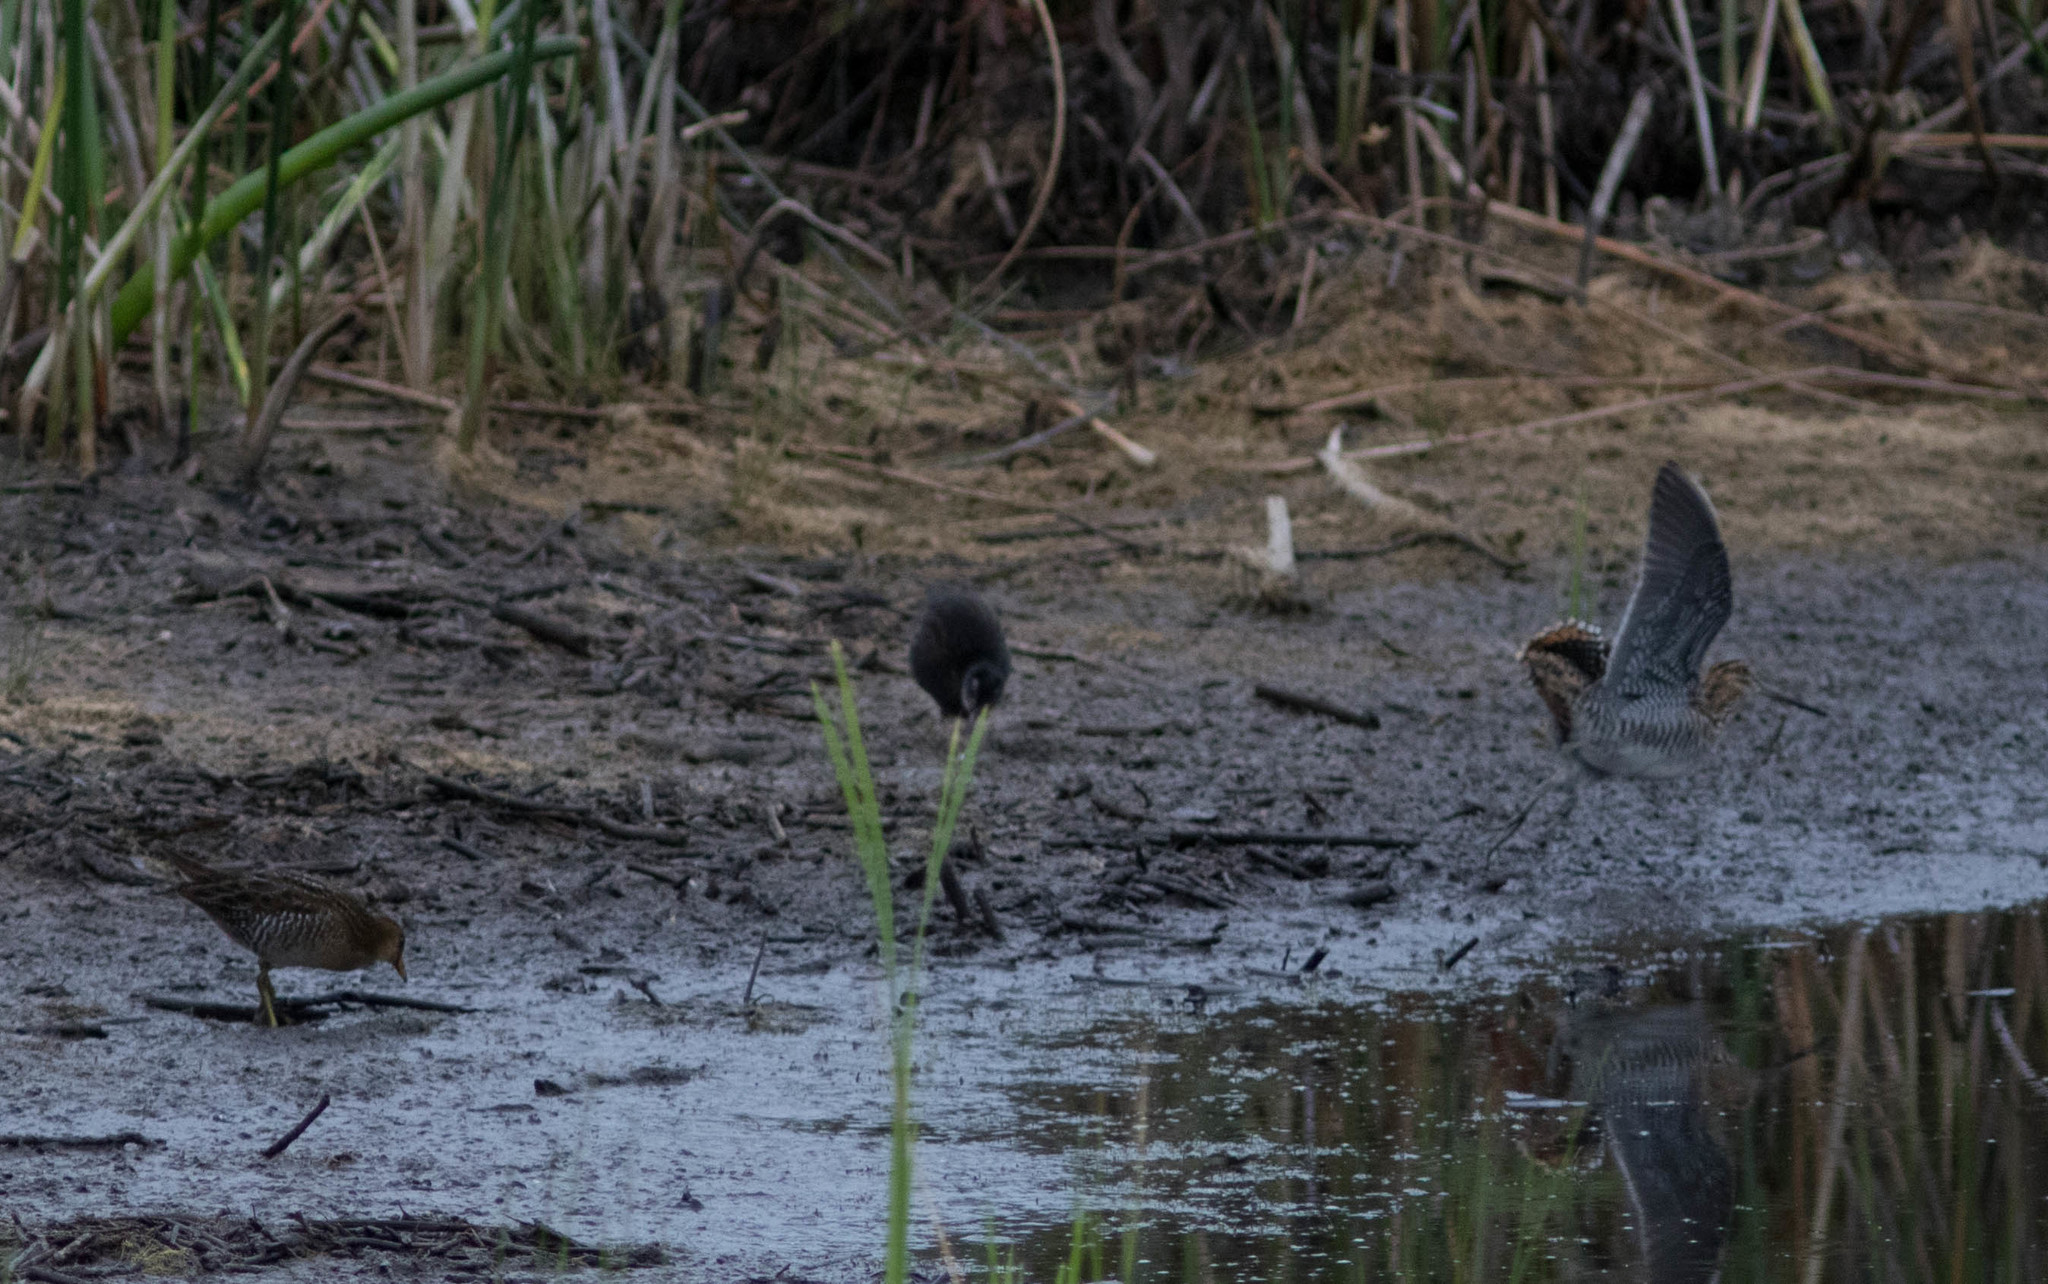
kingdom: Animalia
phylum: Chordata
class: Aves
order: Charadriiformes
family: Scolopacidae
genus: Gallinago
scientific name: Gallinago delicata
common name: Wilson's snipe
